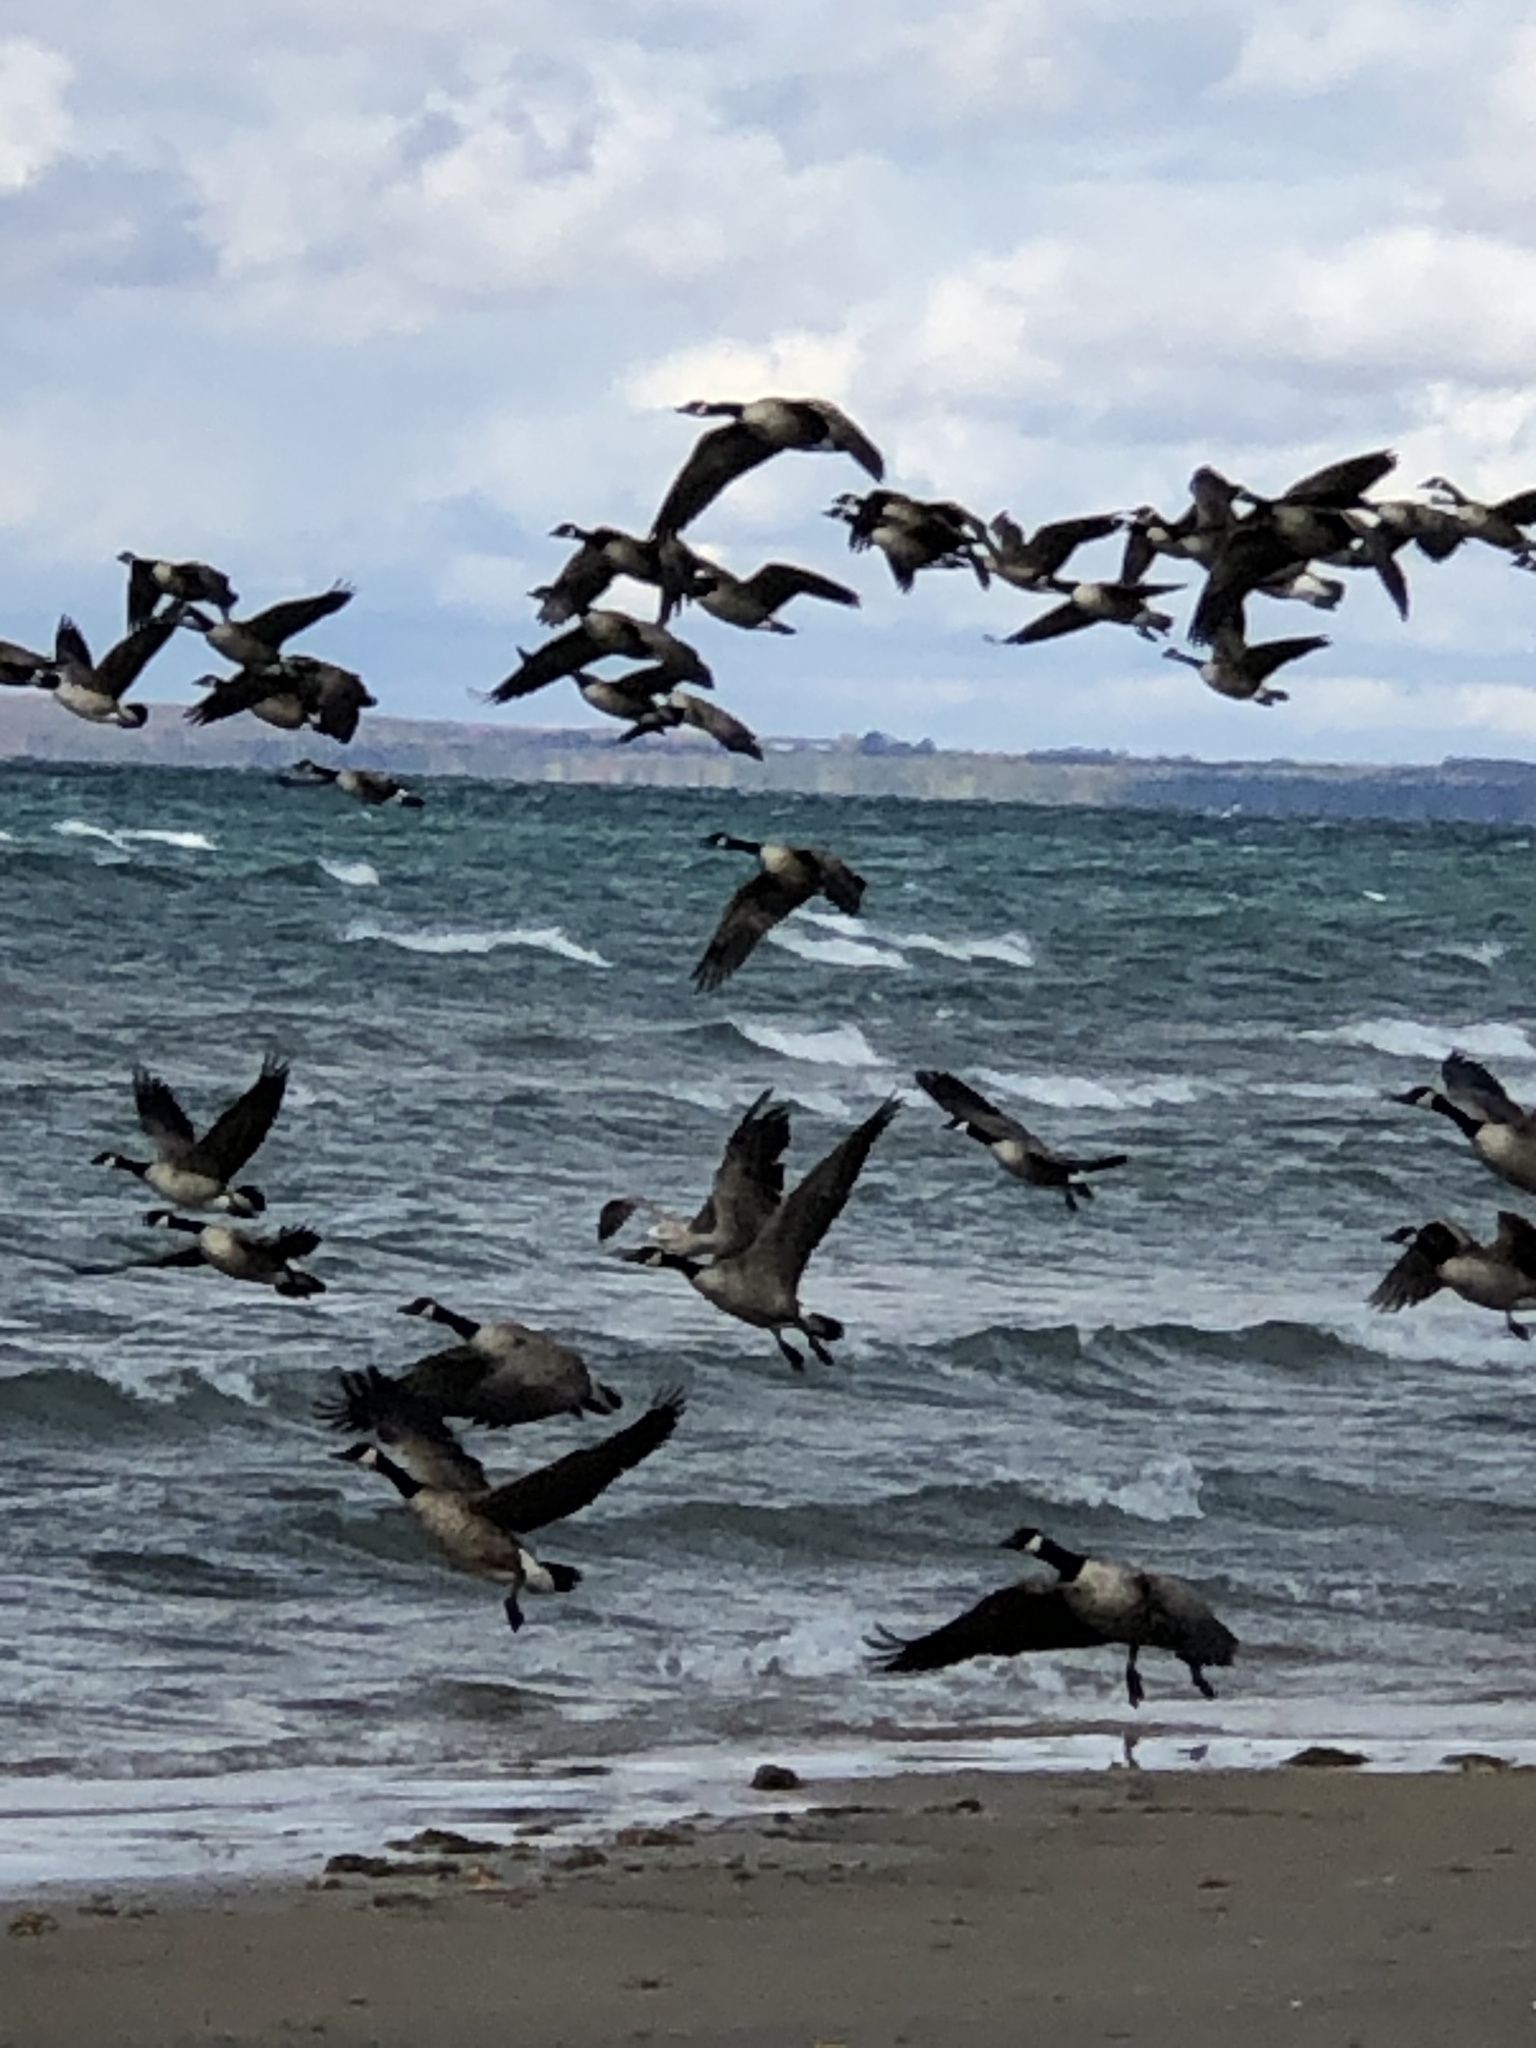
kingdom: Animalia
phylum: Chordata
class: Aves
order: Anseriformes
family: Anatidae
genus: Branta
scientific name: Branta canadensis
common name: Canada goose
